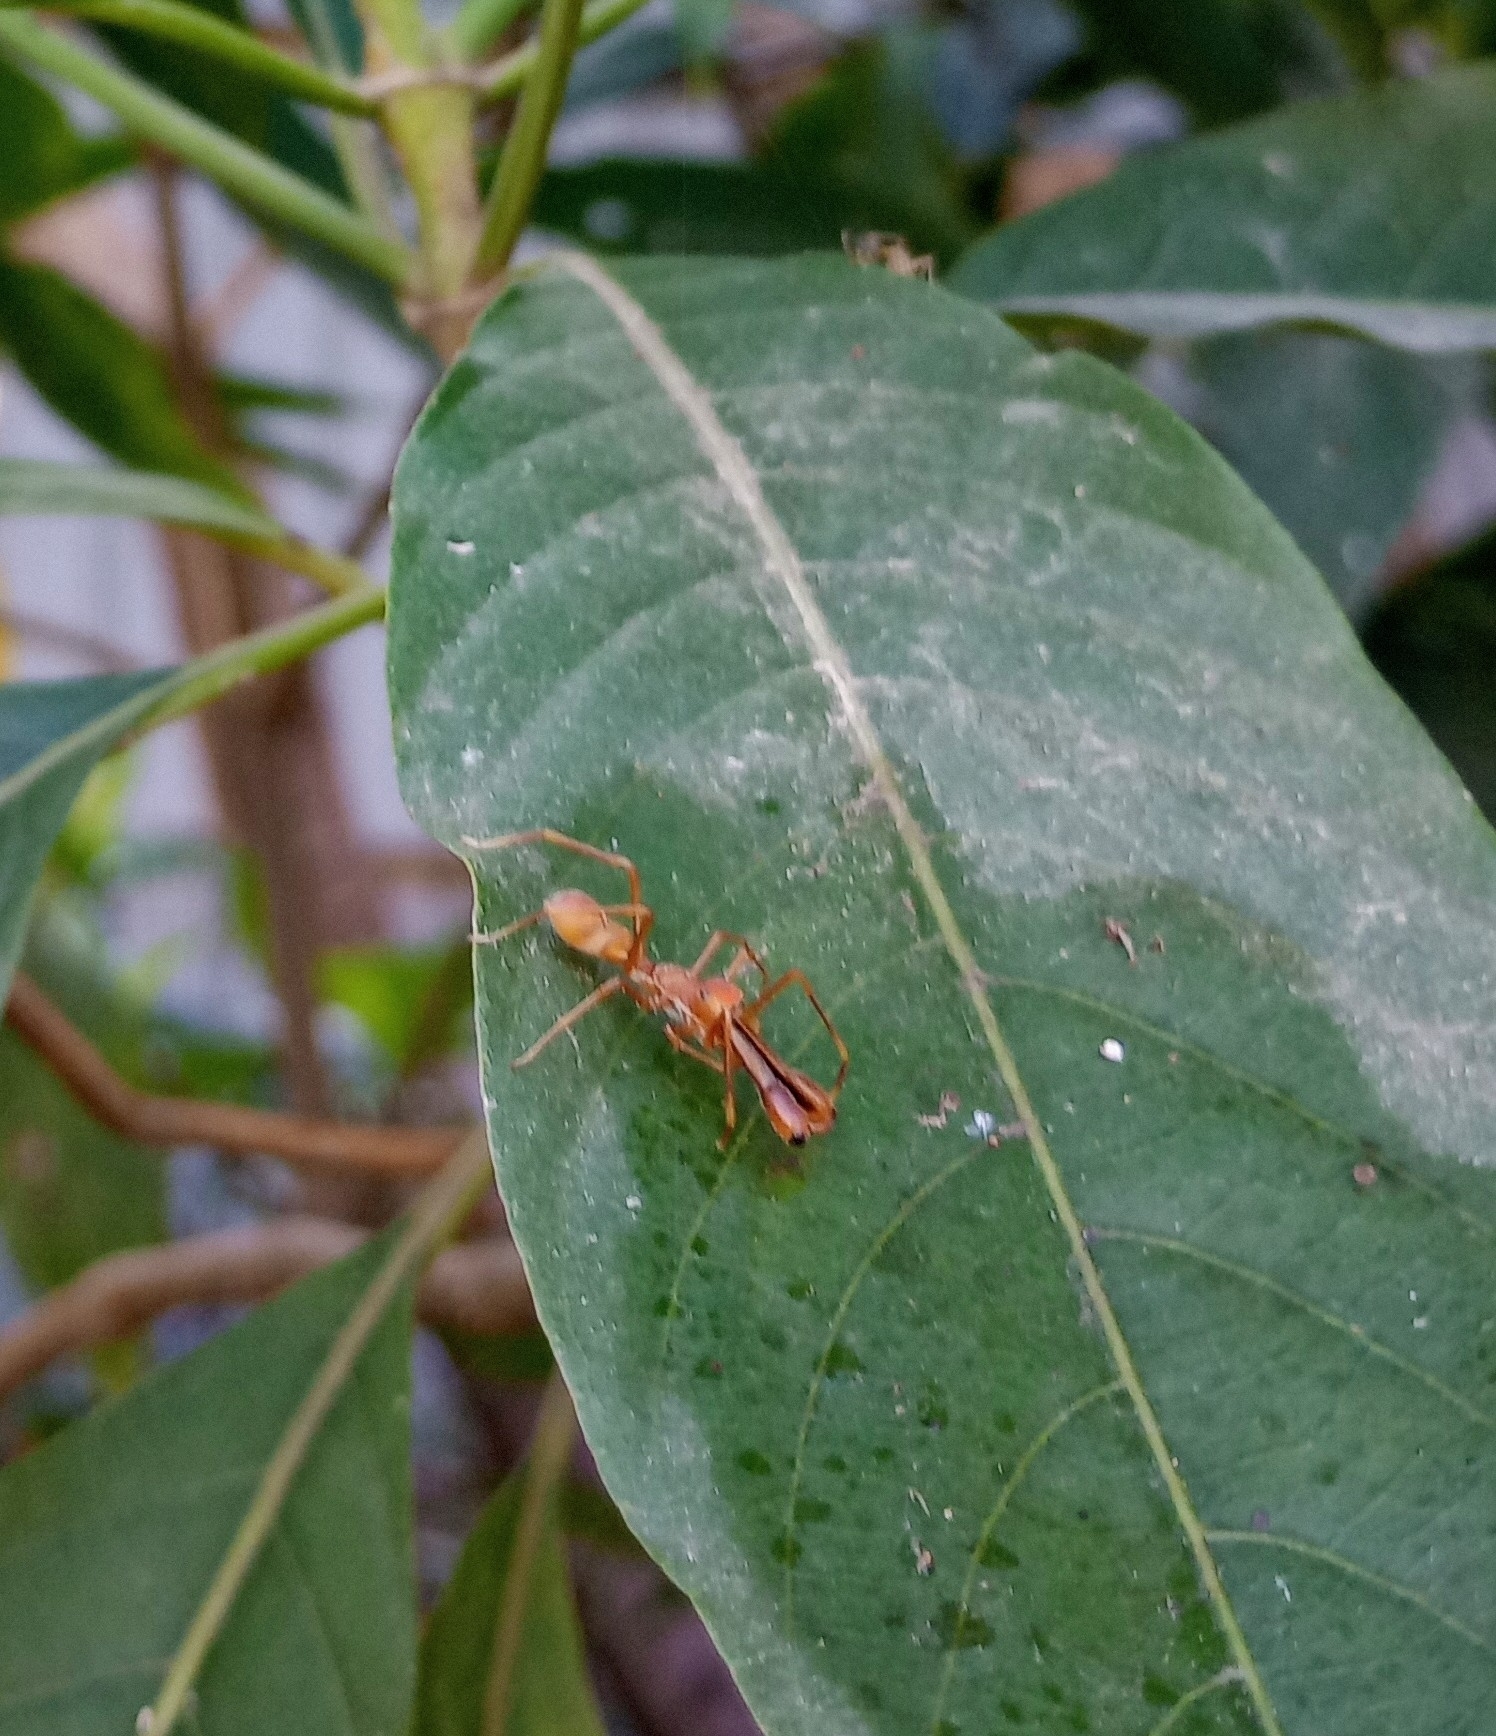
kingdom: Animalia
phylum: Arthropoda
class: Arachnida
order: Araneae
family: Salticidae
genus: Myrmaplata
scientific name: Myrmaplata plataleoides
